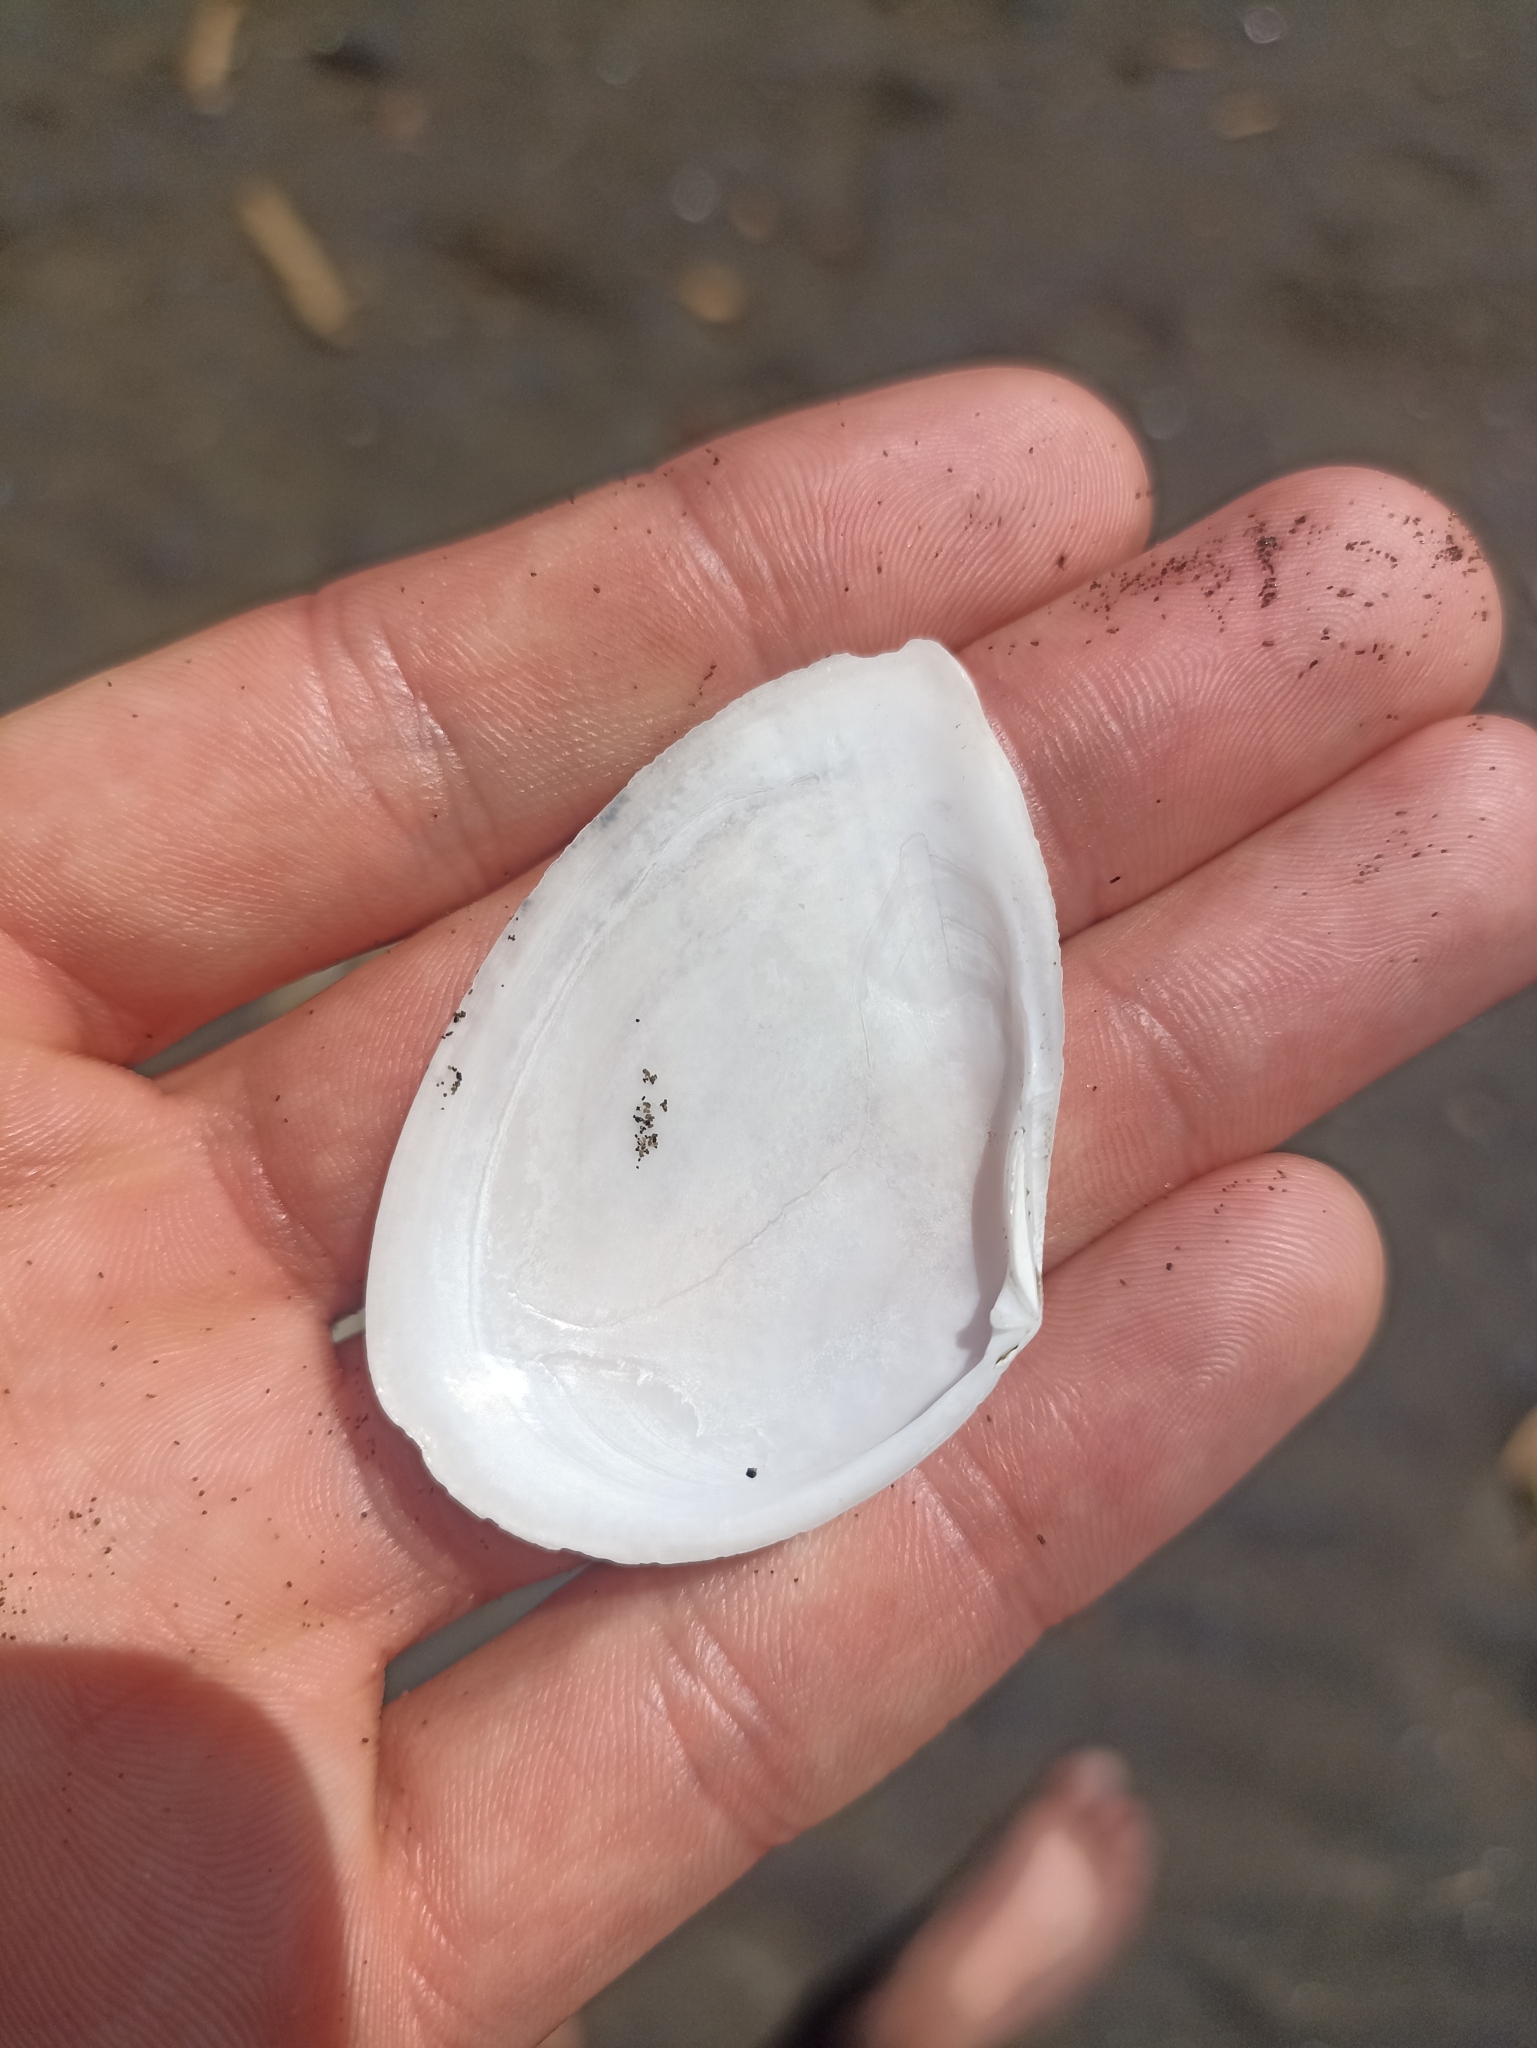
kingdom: Animalia
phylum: Mollusca
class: Bivalvia
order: Cardiida
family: Tellinidae
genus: Bartschicoma
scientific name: Bartschicoma gaimardi
